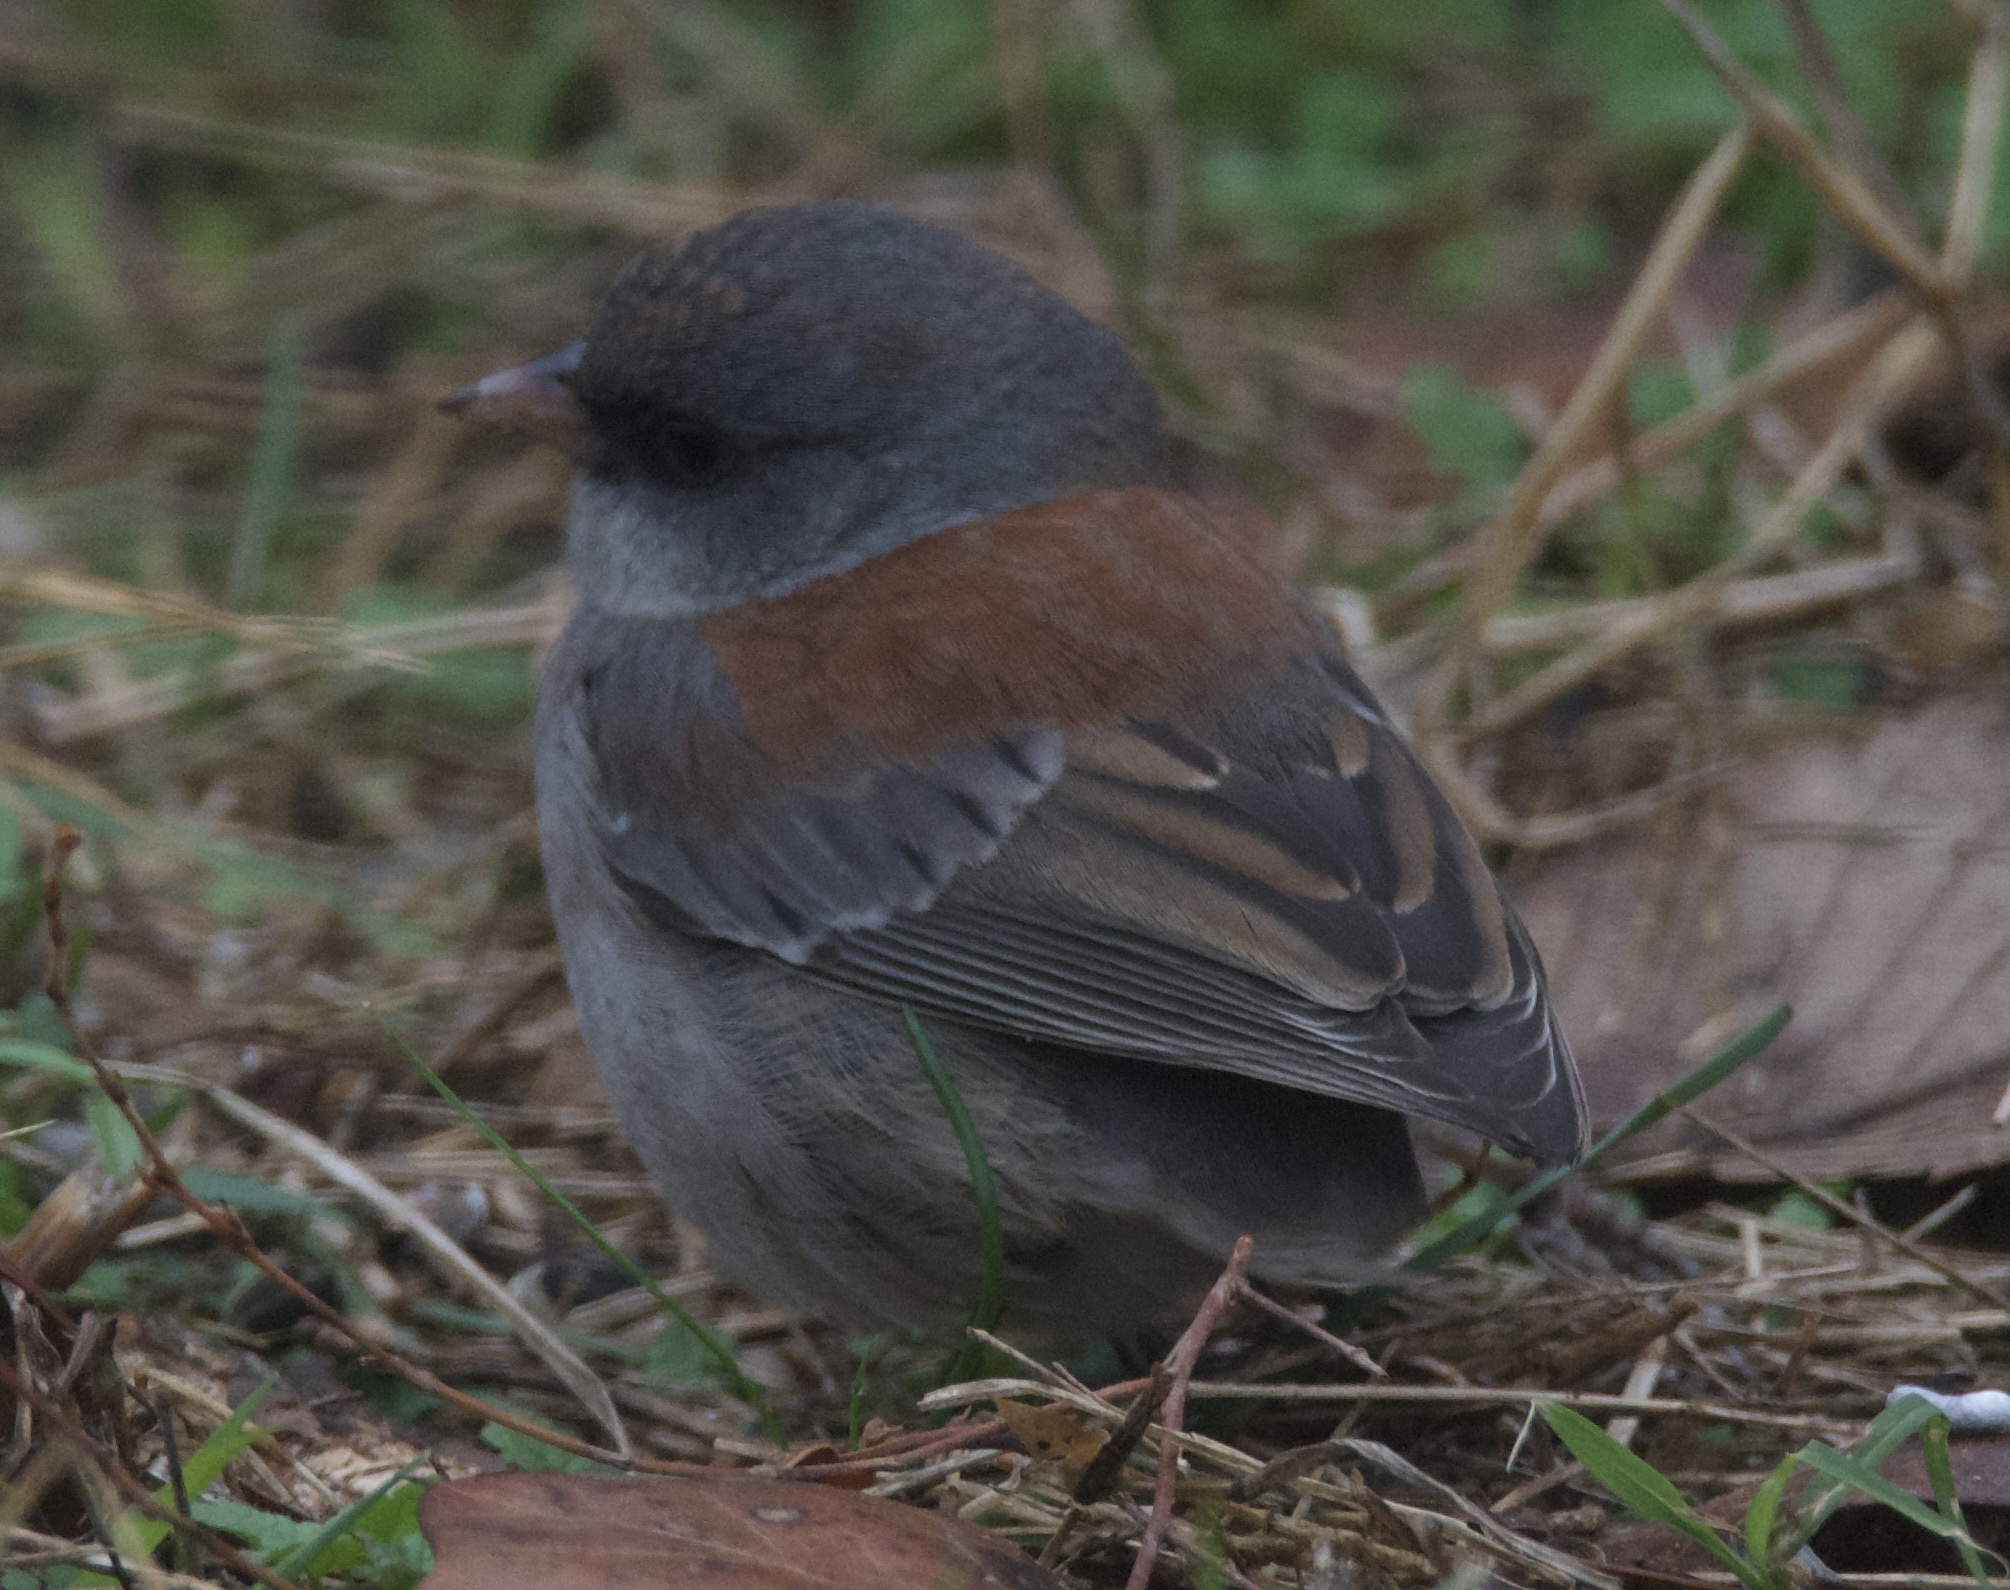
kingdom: Animalia
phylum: Chordata
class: Aves
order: Passeriformes
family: Passerellidae
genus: Junco
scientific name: Junco hyemalis
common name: Dark-eyed junco
